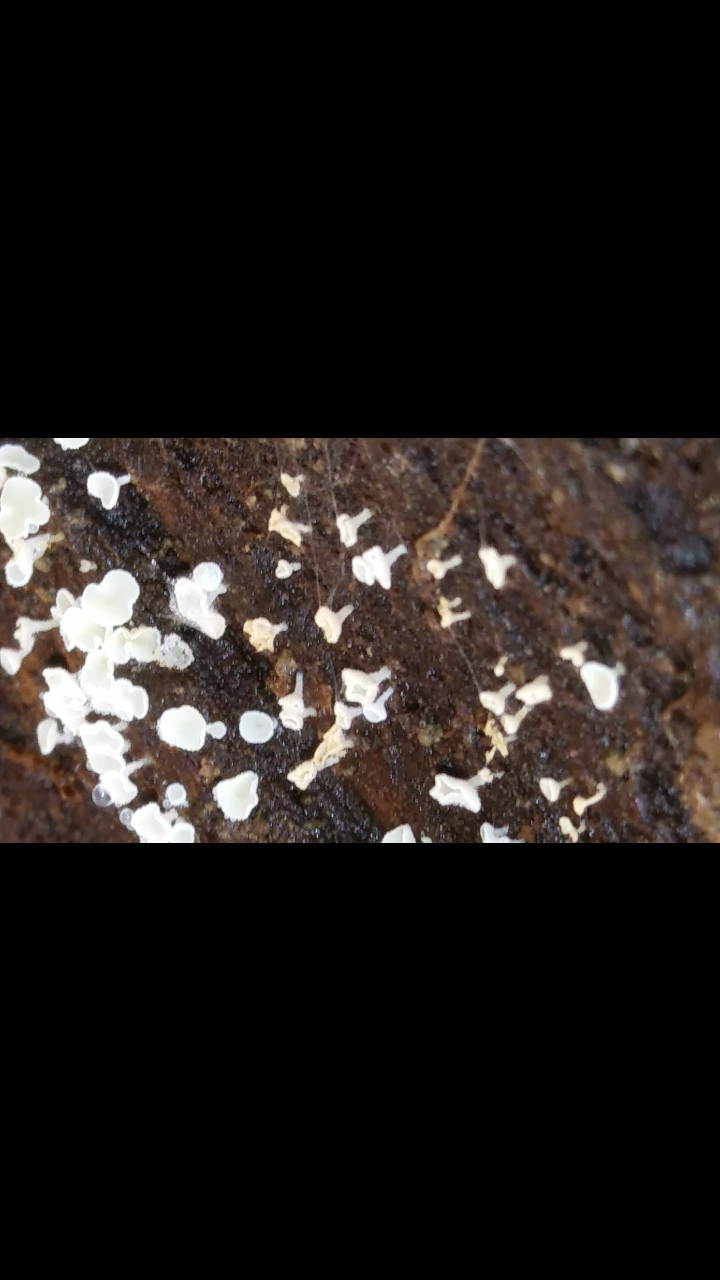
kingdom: Fungi
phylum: Ascomycota
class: Leotiomycetes
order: Helotiales
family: Lachnaceae
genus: Lachnum
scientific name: Lachnum virgineum
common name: Snowy disco
